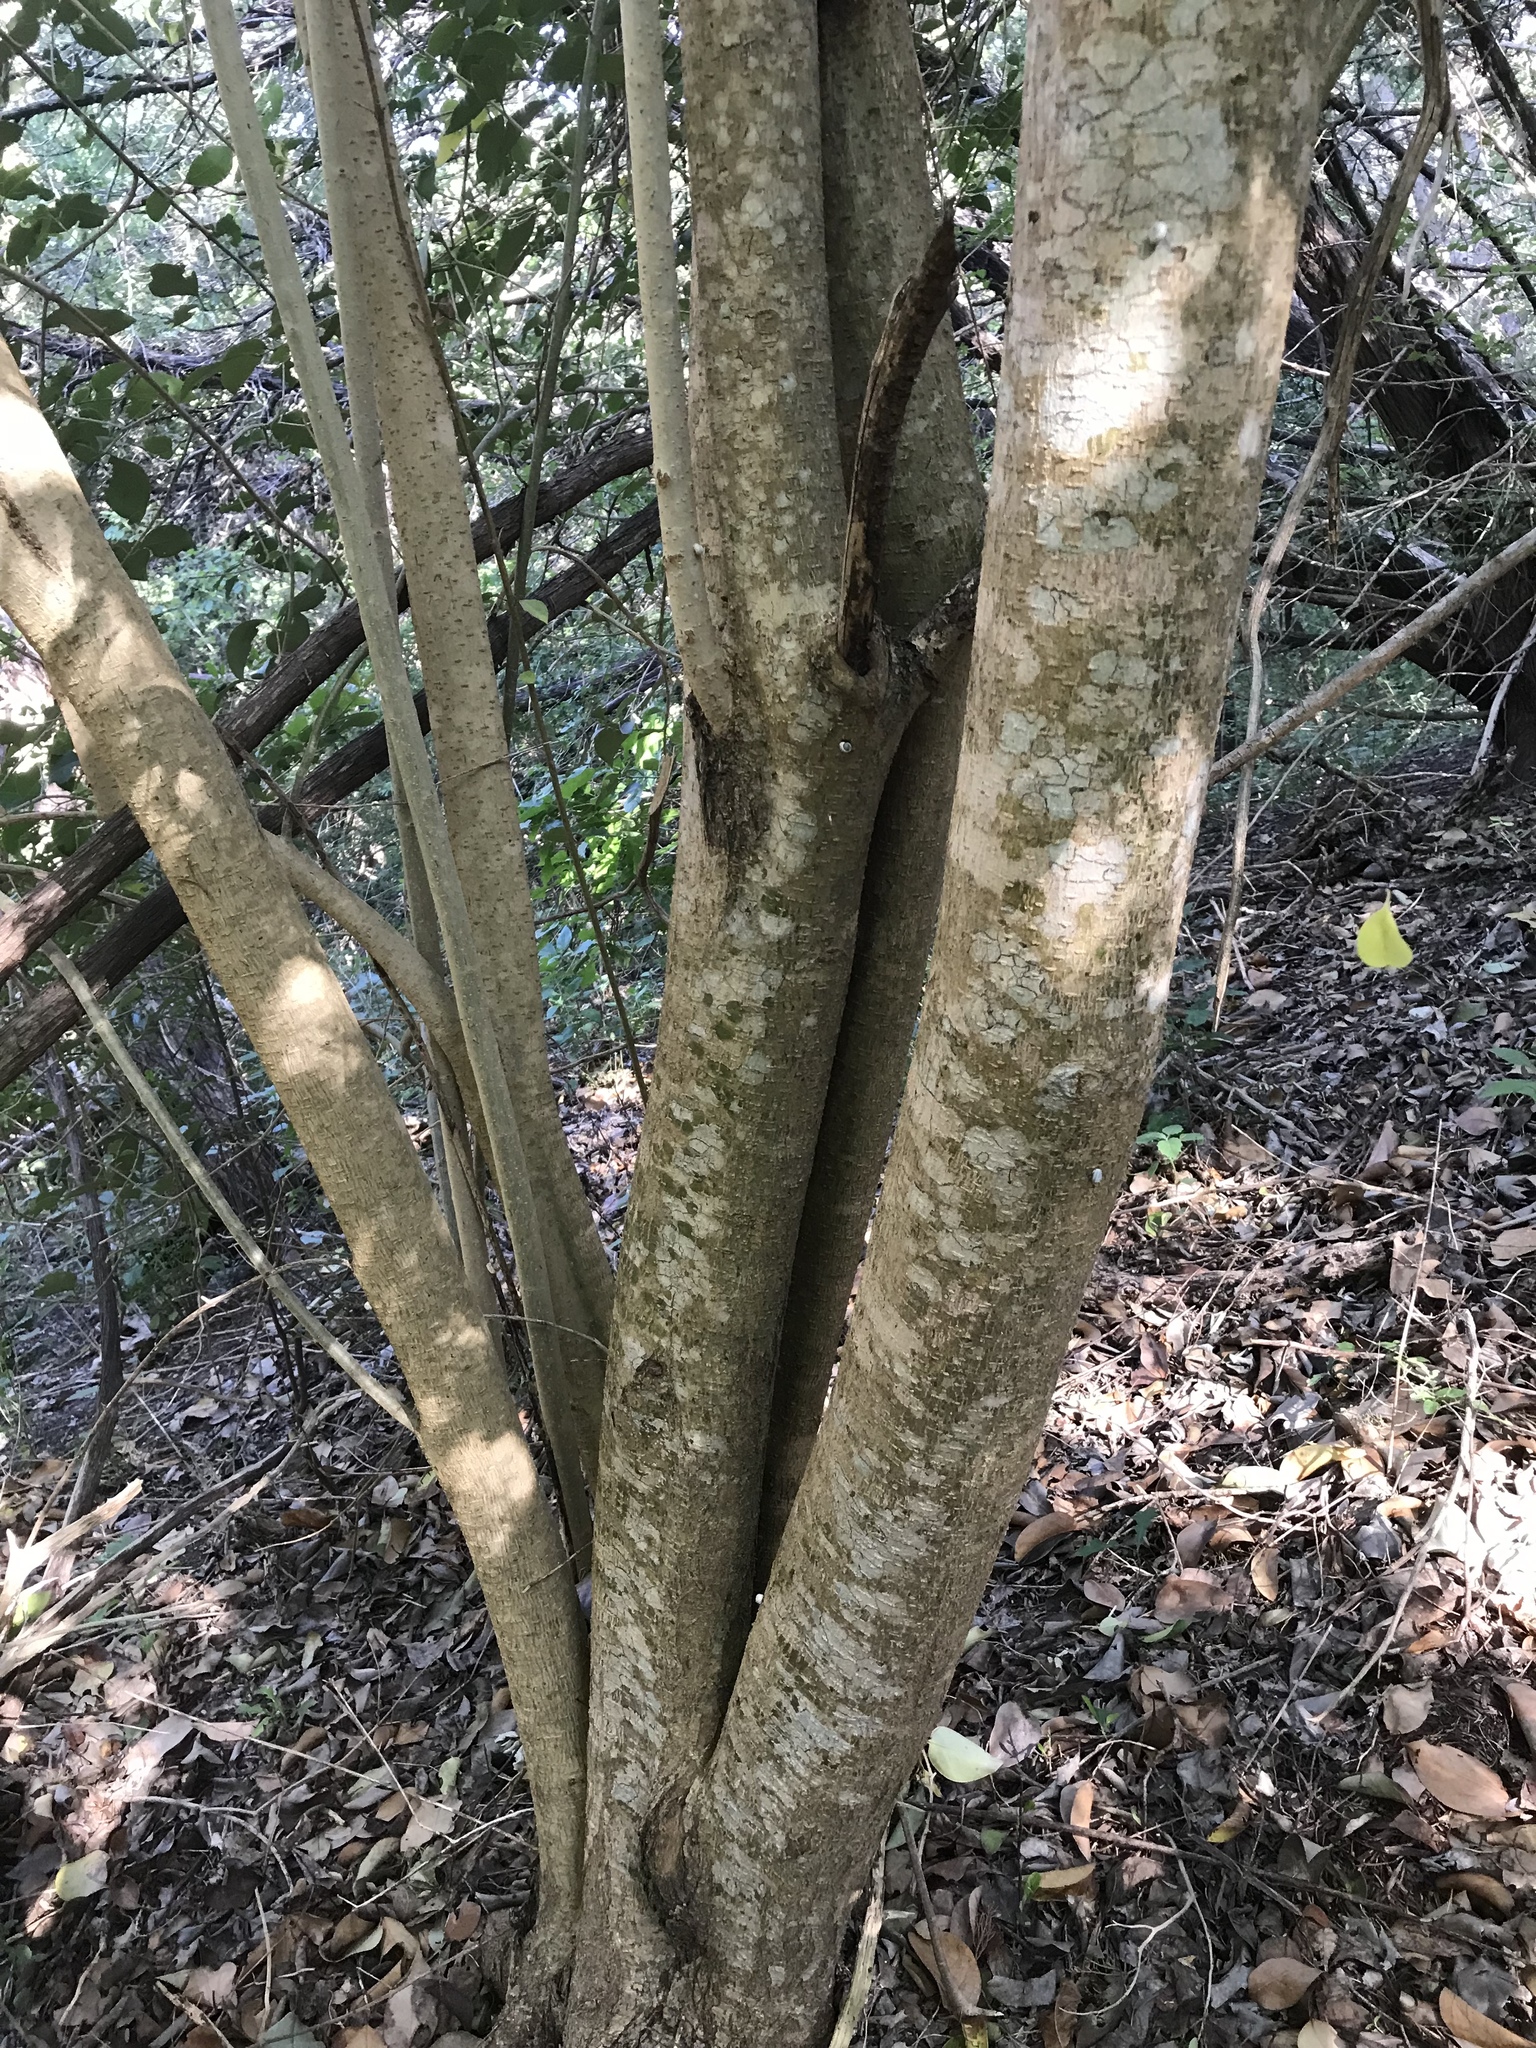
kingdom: Plantae
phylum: Tracheophyta
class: Magnoliopsida
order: Lamiales
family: Oleaceae
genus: Ligustrum
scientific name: Ligustrum lucidum
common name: Glossy privet
